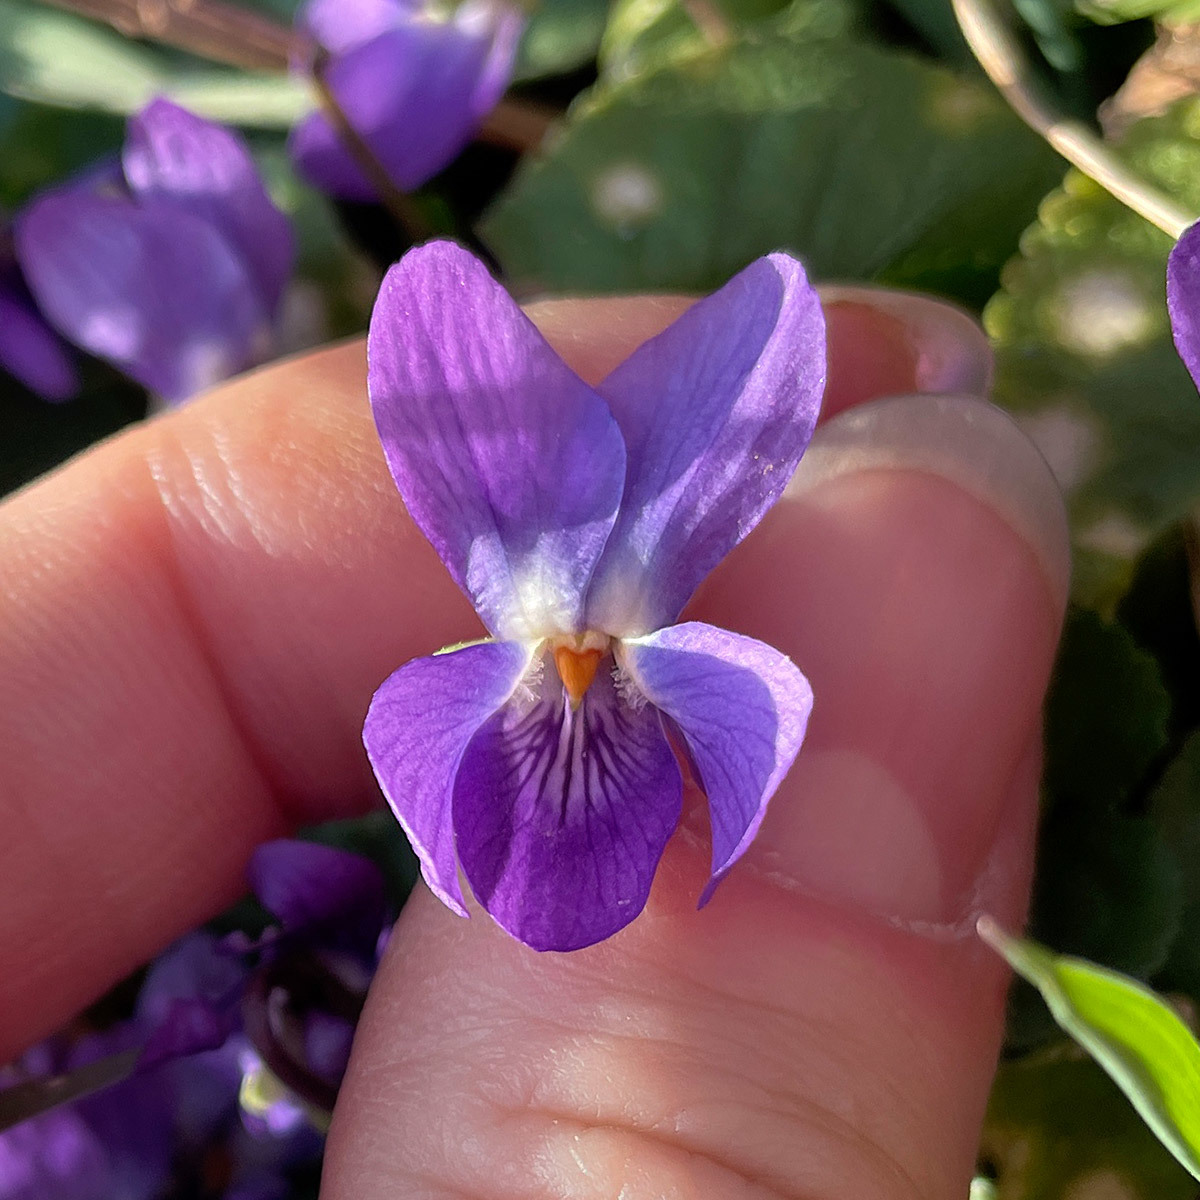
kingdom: Plantae
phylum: Tracheophyta
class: Magnoliopsida
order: Malpighiales
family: Violaceae
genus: Viola
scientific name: Viola odorata
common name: Sweet violet
